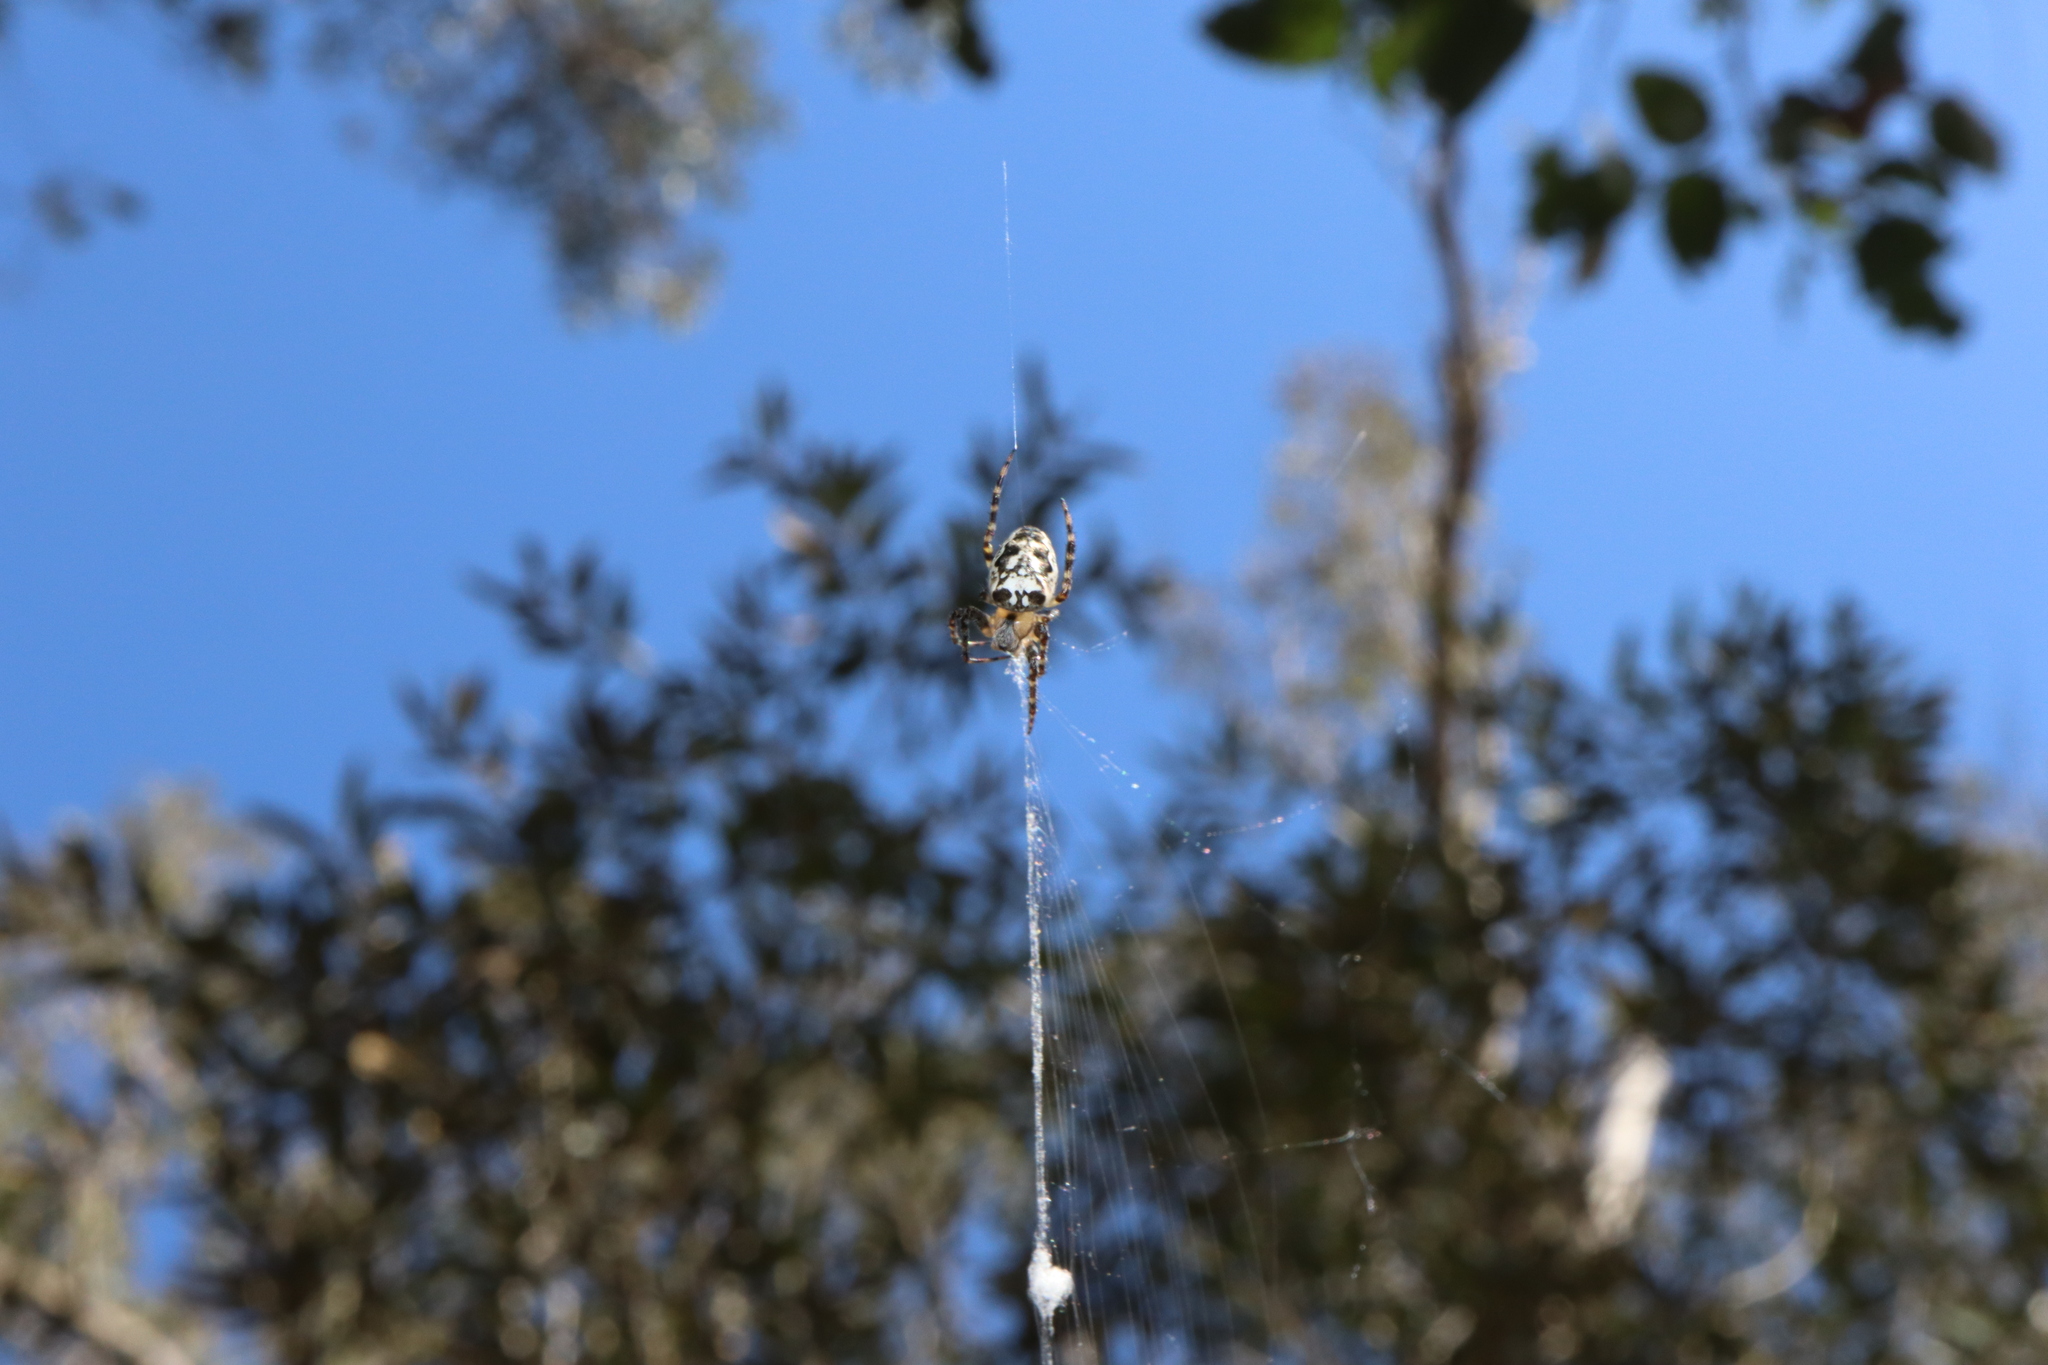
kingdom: Animalia
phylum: Arthropoda
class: Arachnida
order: Araneae
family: Araneidae
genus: Plebs
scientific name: Plebs eburnus
